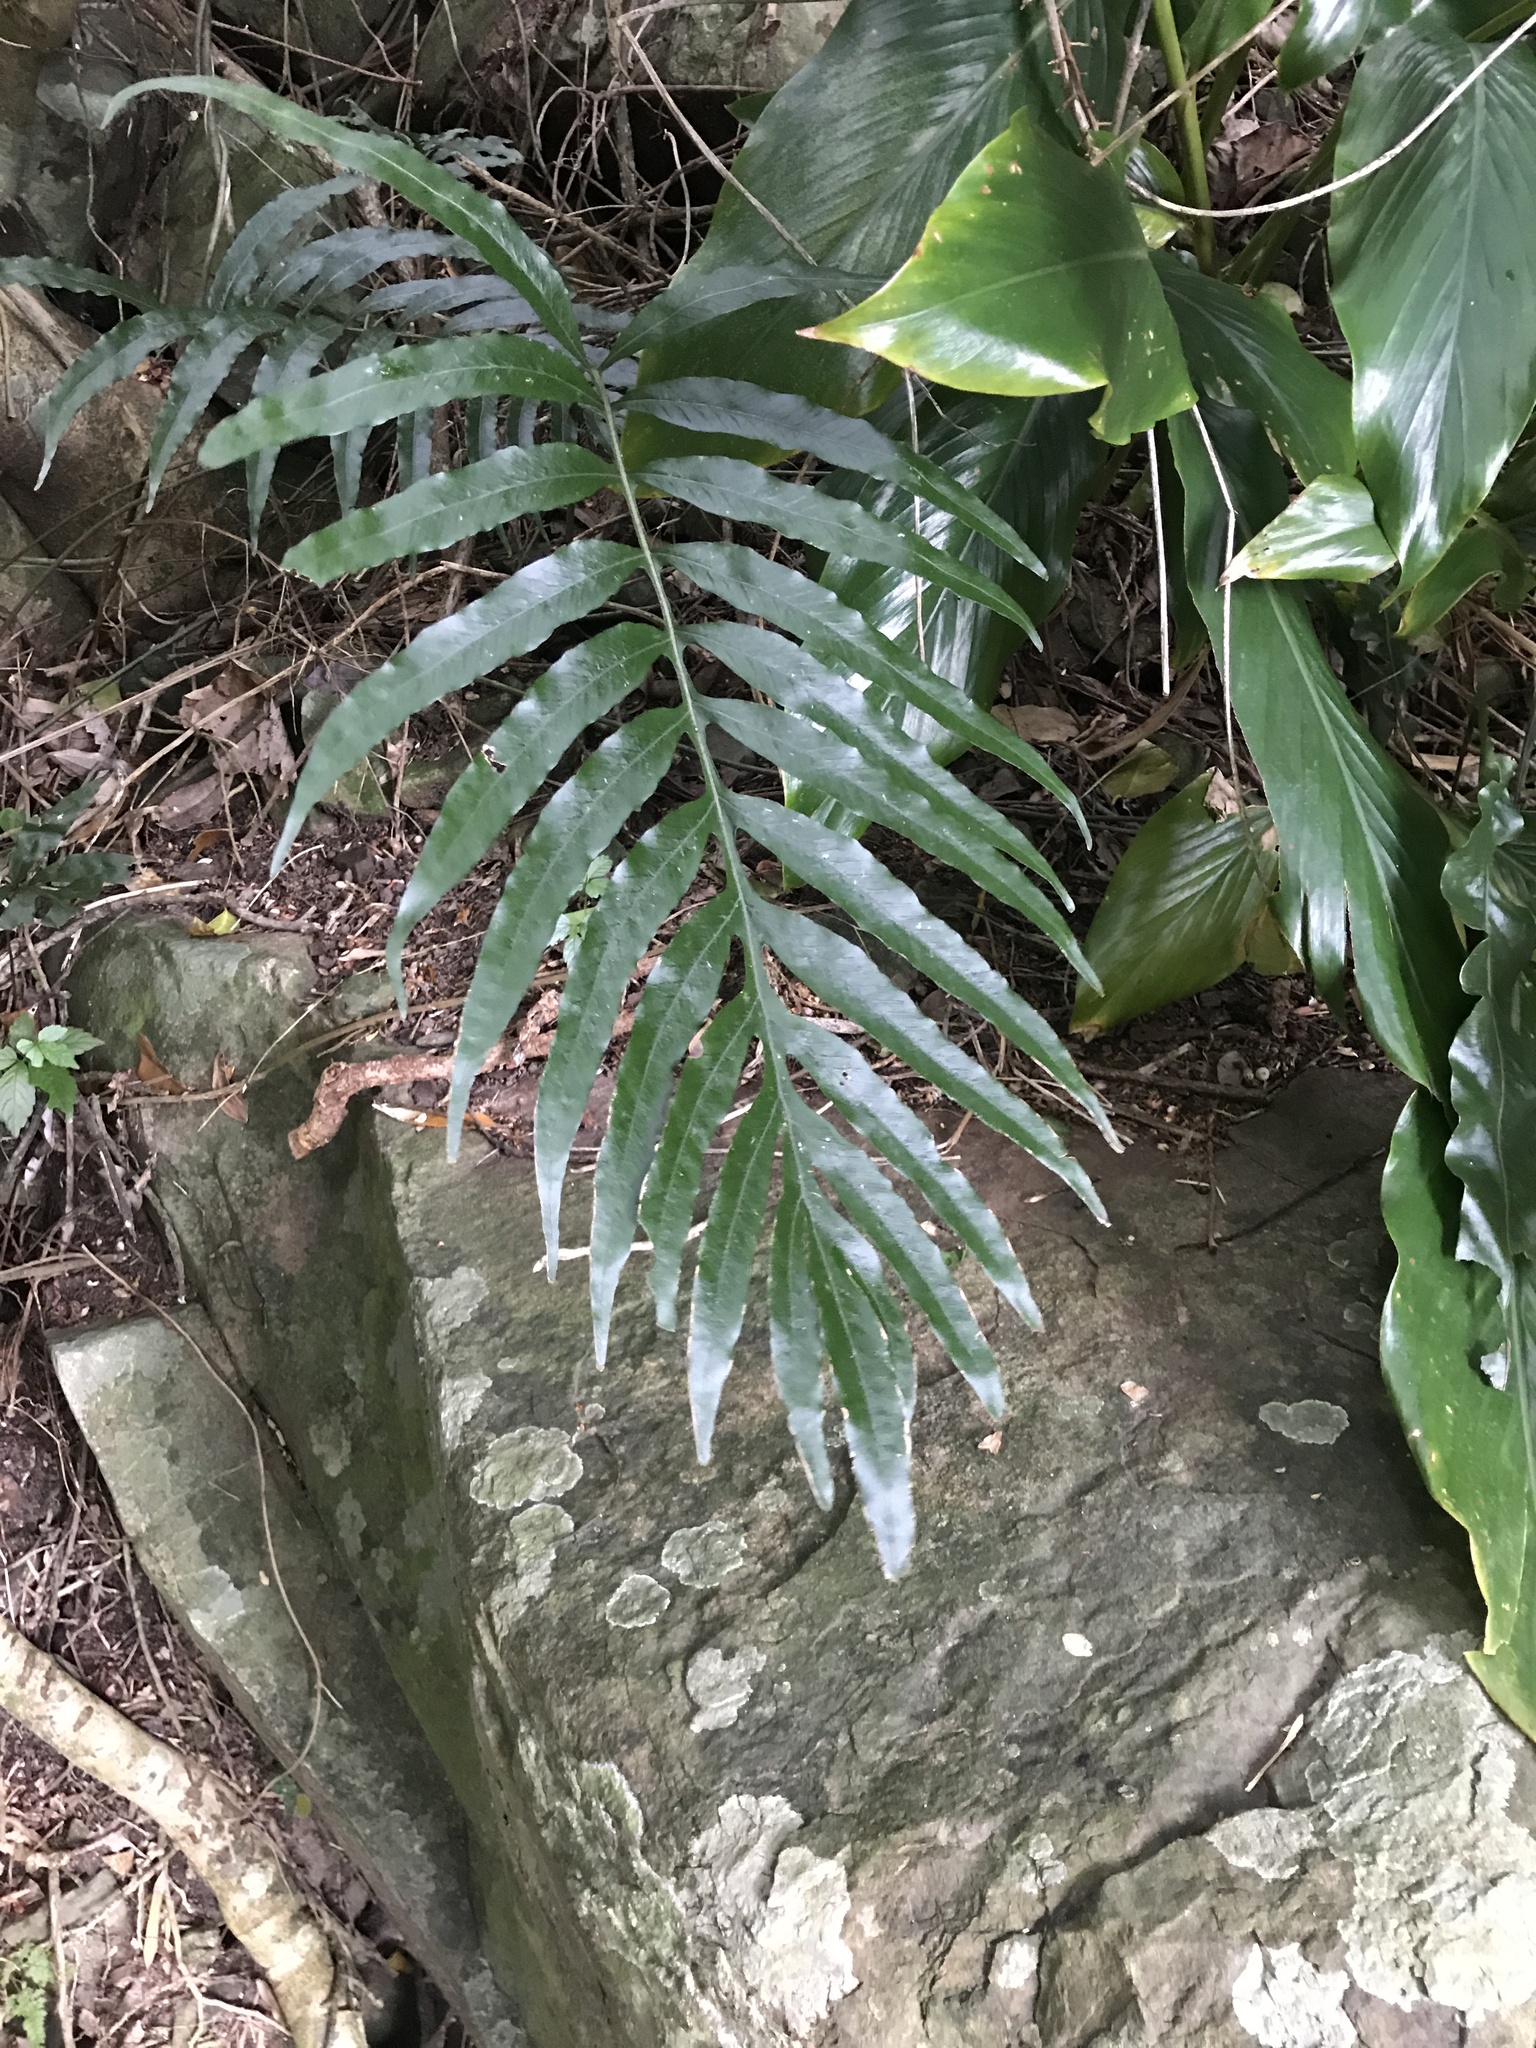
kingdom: Plantae
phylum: Tracheophyta
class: Polypodiopsida
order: Polypodiales
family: Polypodiaceae
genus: Leptochilus
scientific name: Leptochilus ellipticus
